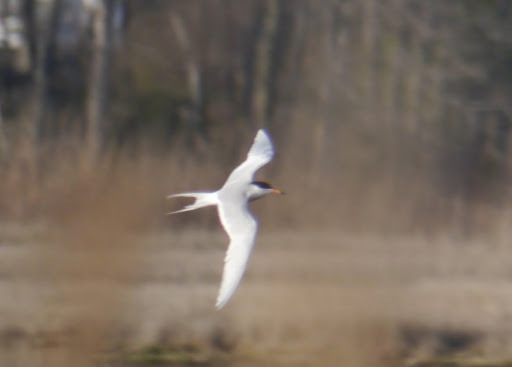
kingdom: Animalia
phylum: Chordata
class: Aves
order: Charadriiformes
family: Laridae
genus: Sterna
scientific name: Sterna forsteri
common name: Forster's tern
